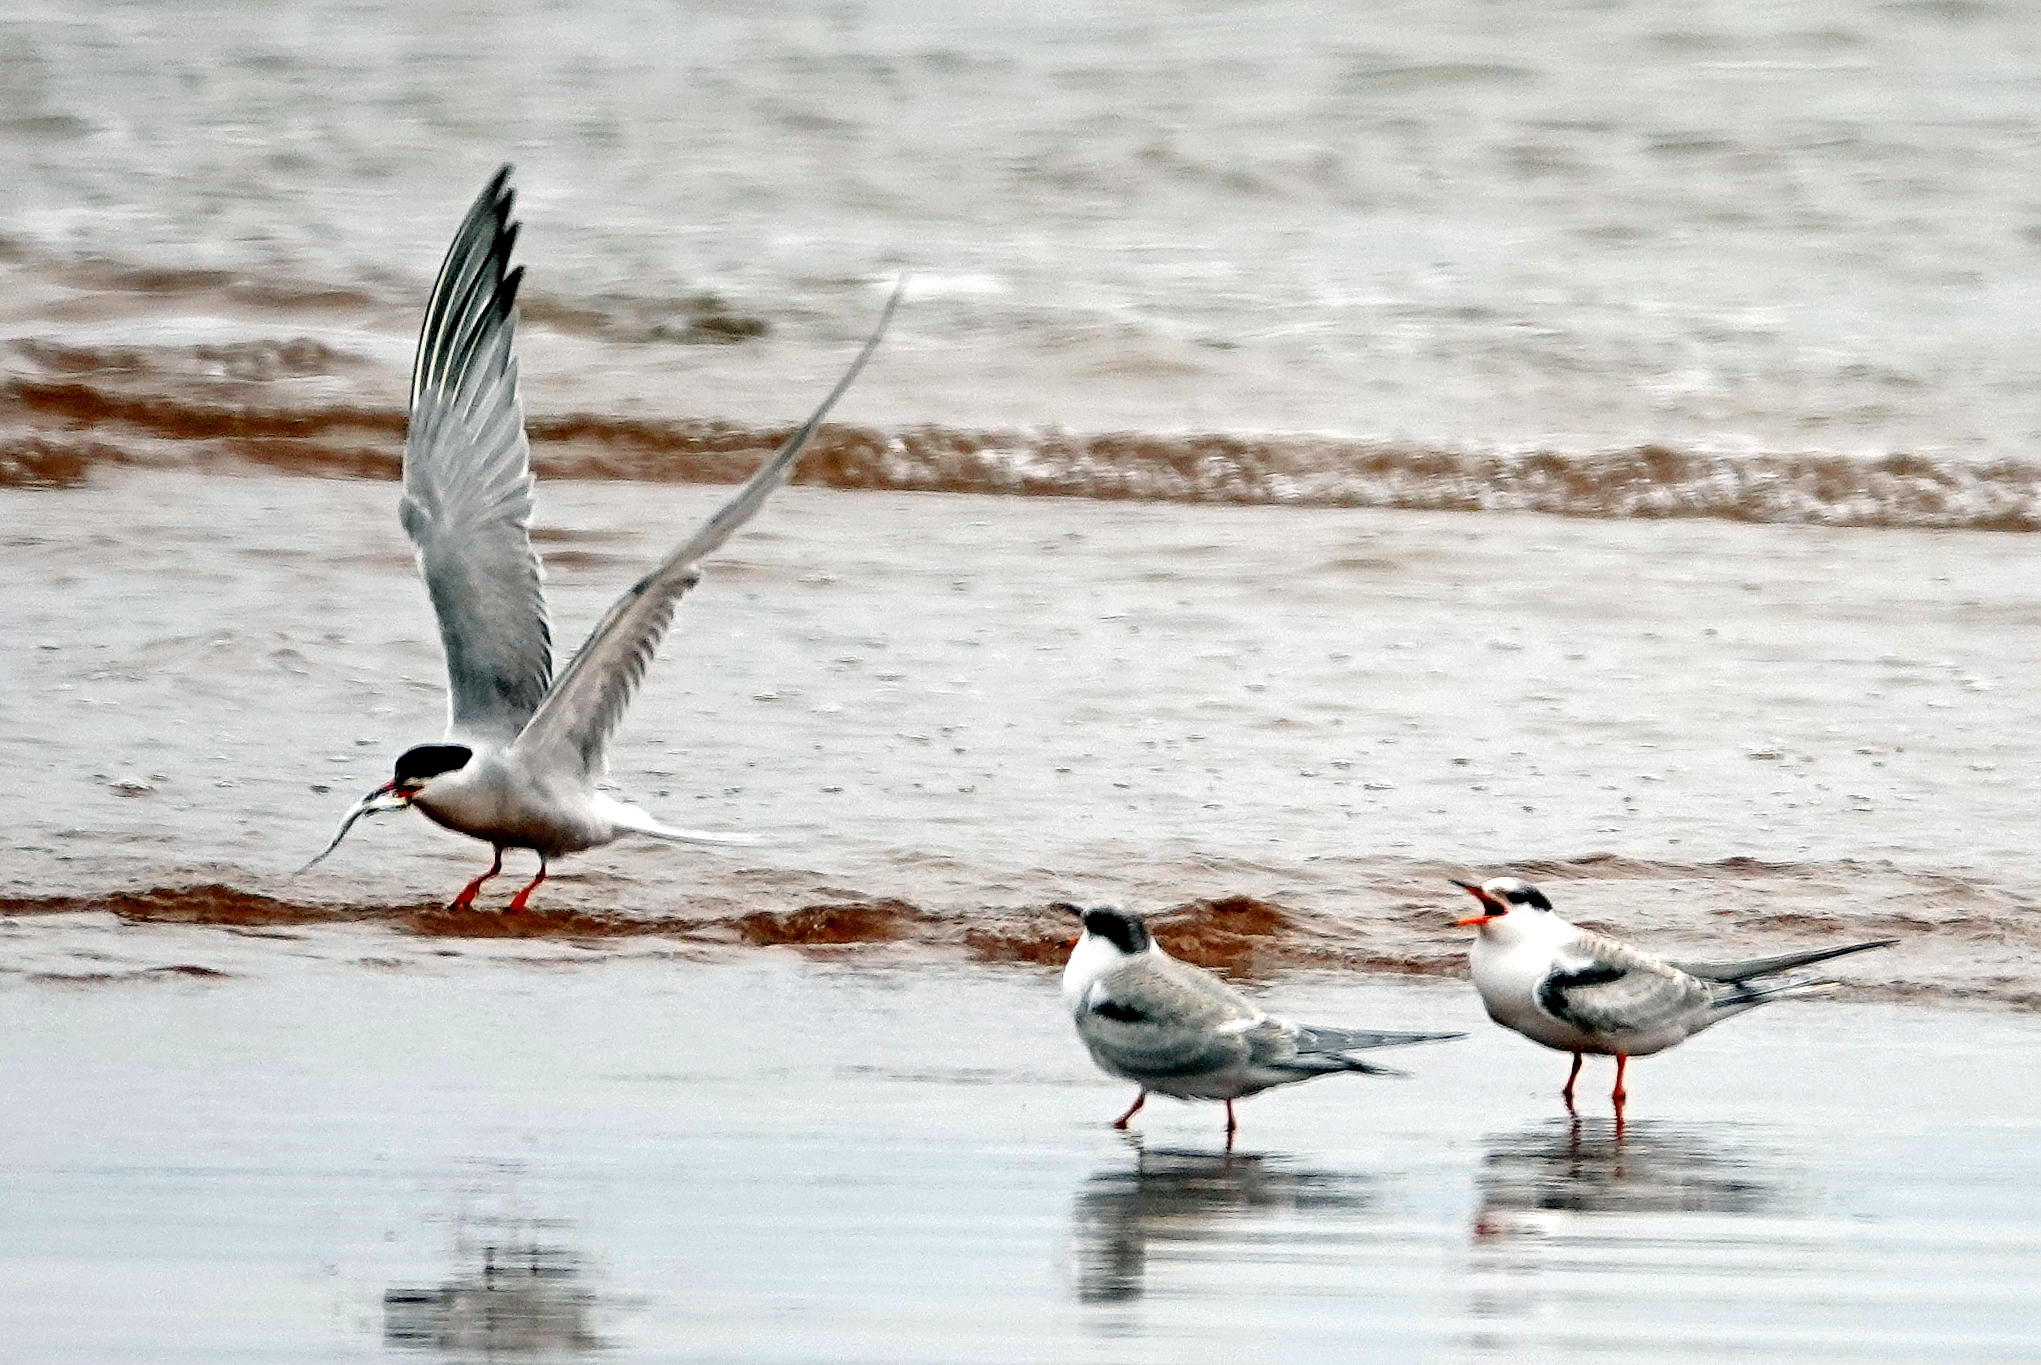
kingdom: Animalia
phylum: Chordata
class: Aves
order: Charadriiformes
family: Laridae
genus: Sterna
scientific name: Sterna hirundo
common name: Common tern
